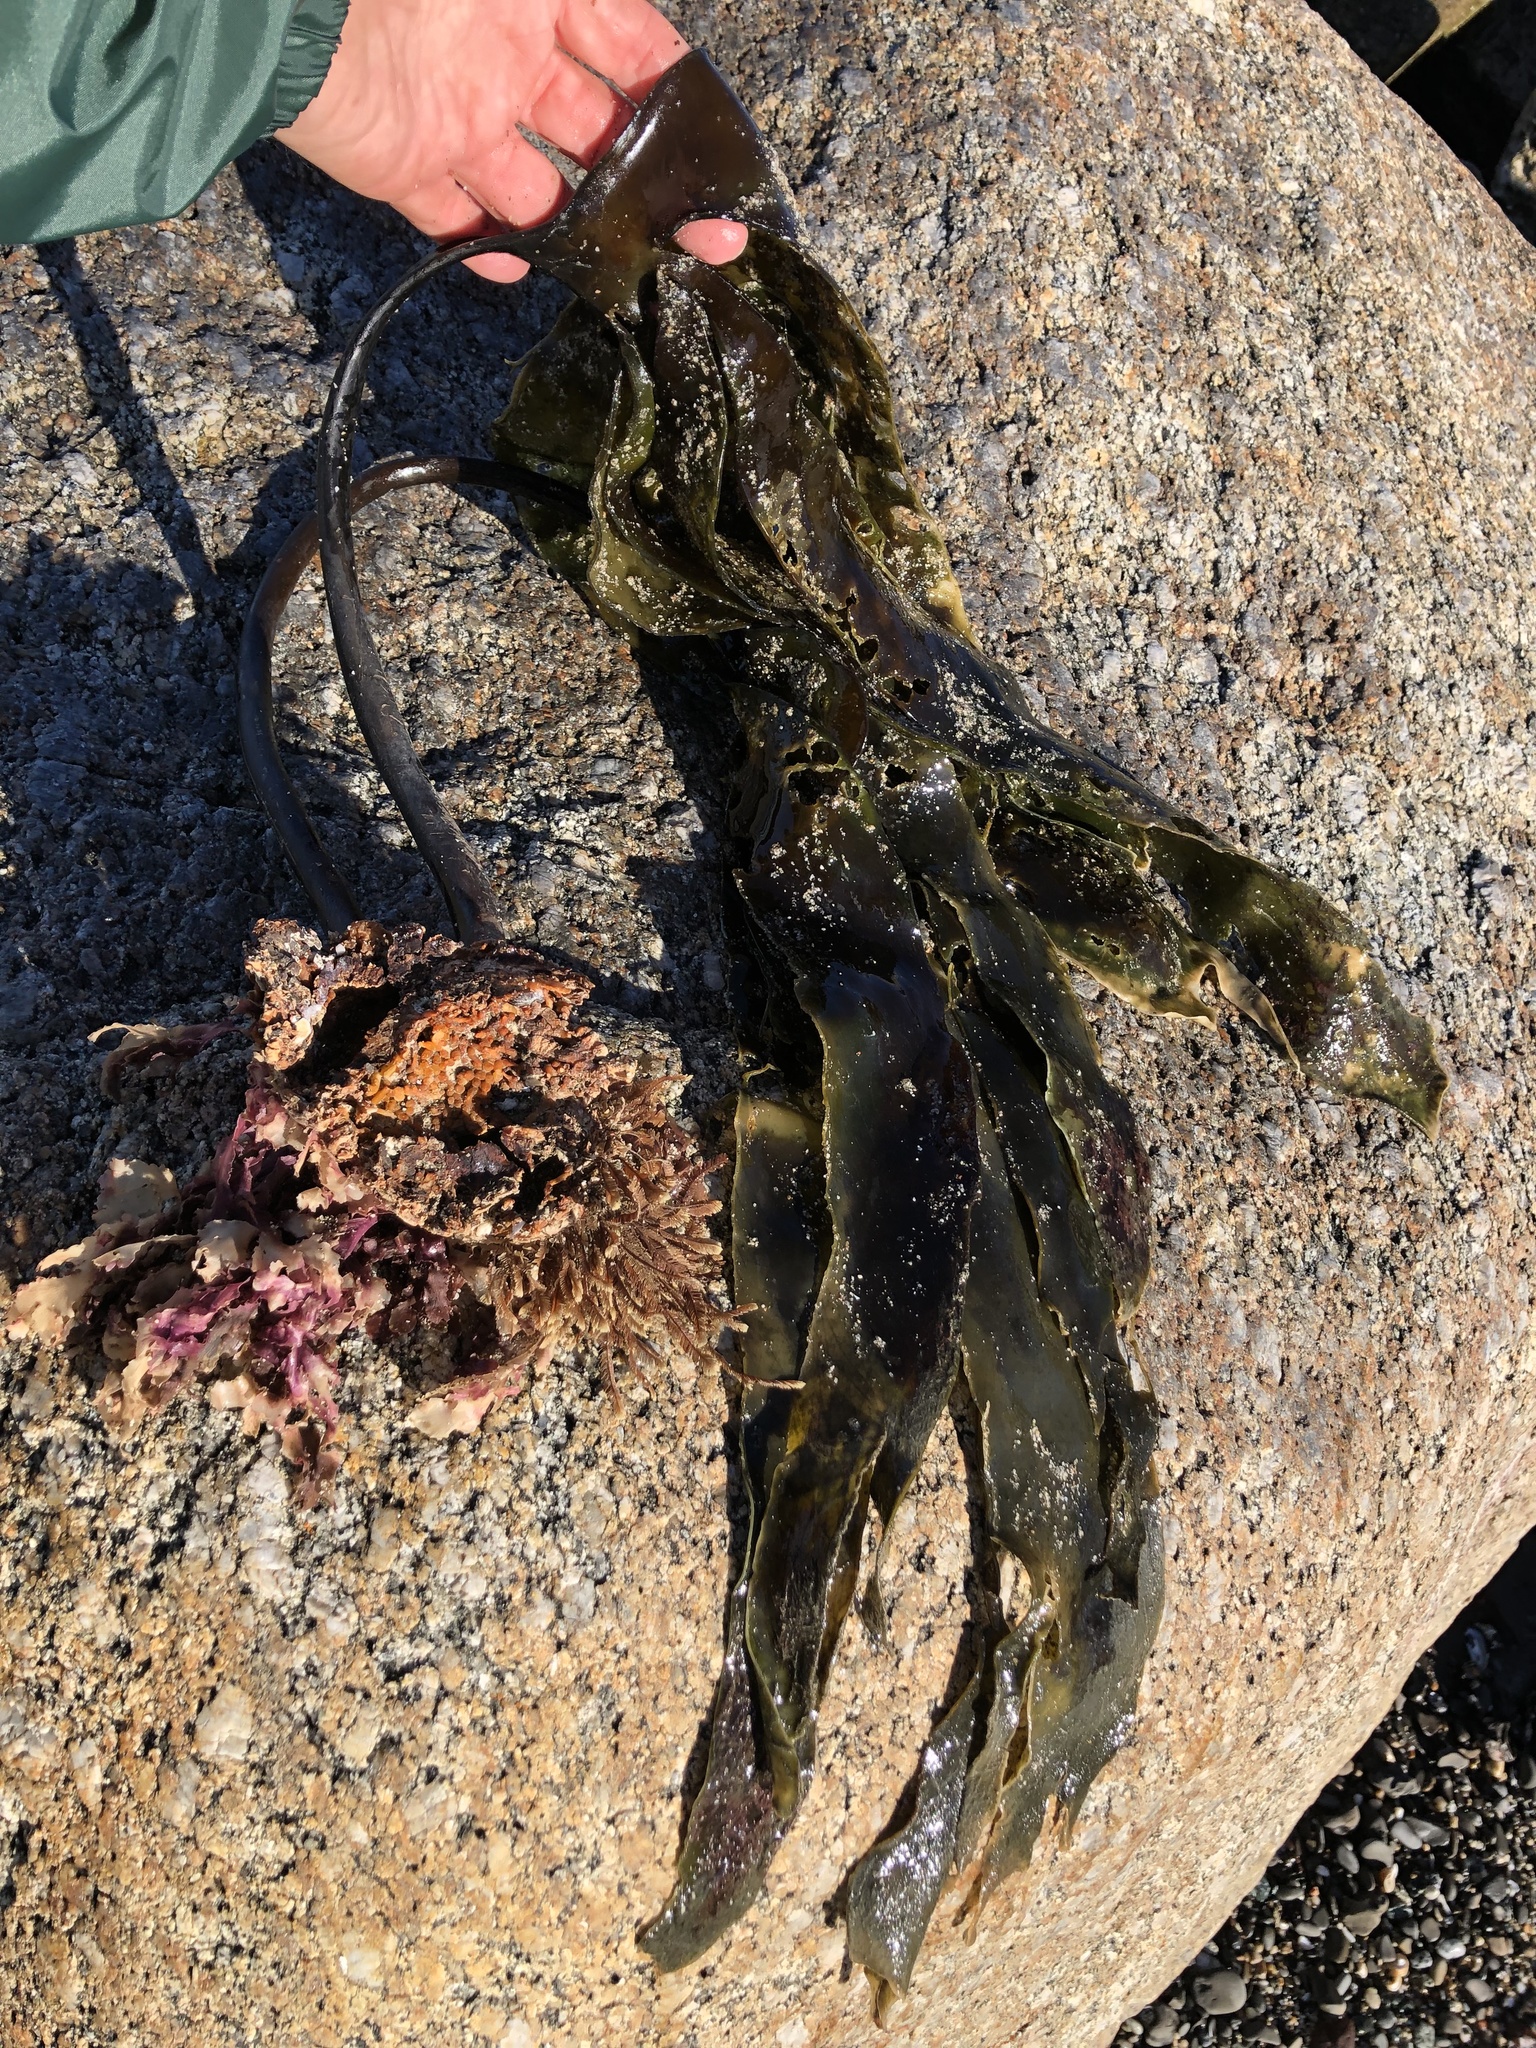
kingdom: Chromista
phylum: Ochrophyta
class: Phaeophyceae
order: Laminariales
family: Laminariaceae
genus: Laminaria
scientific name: Laminaria setchellii
